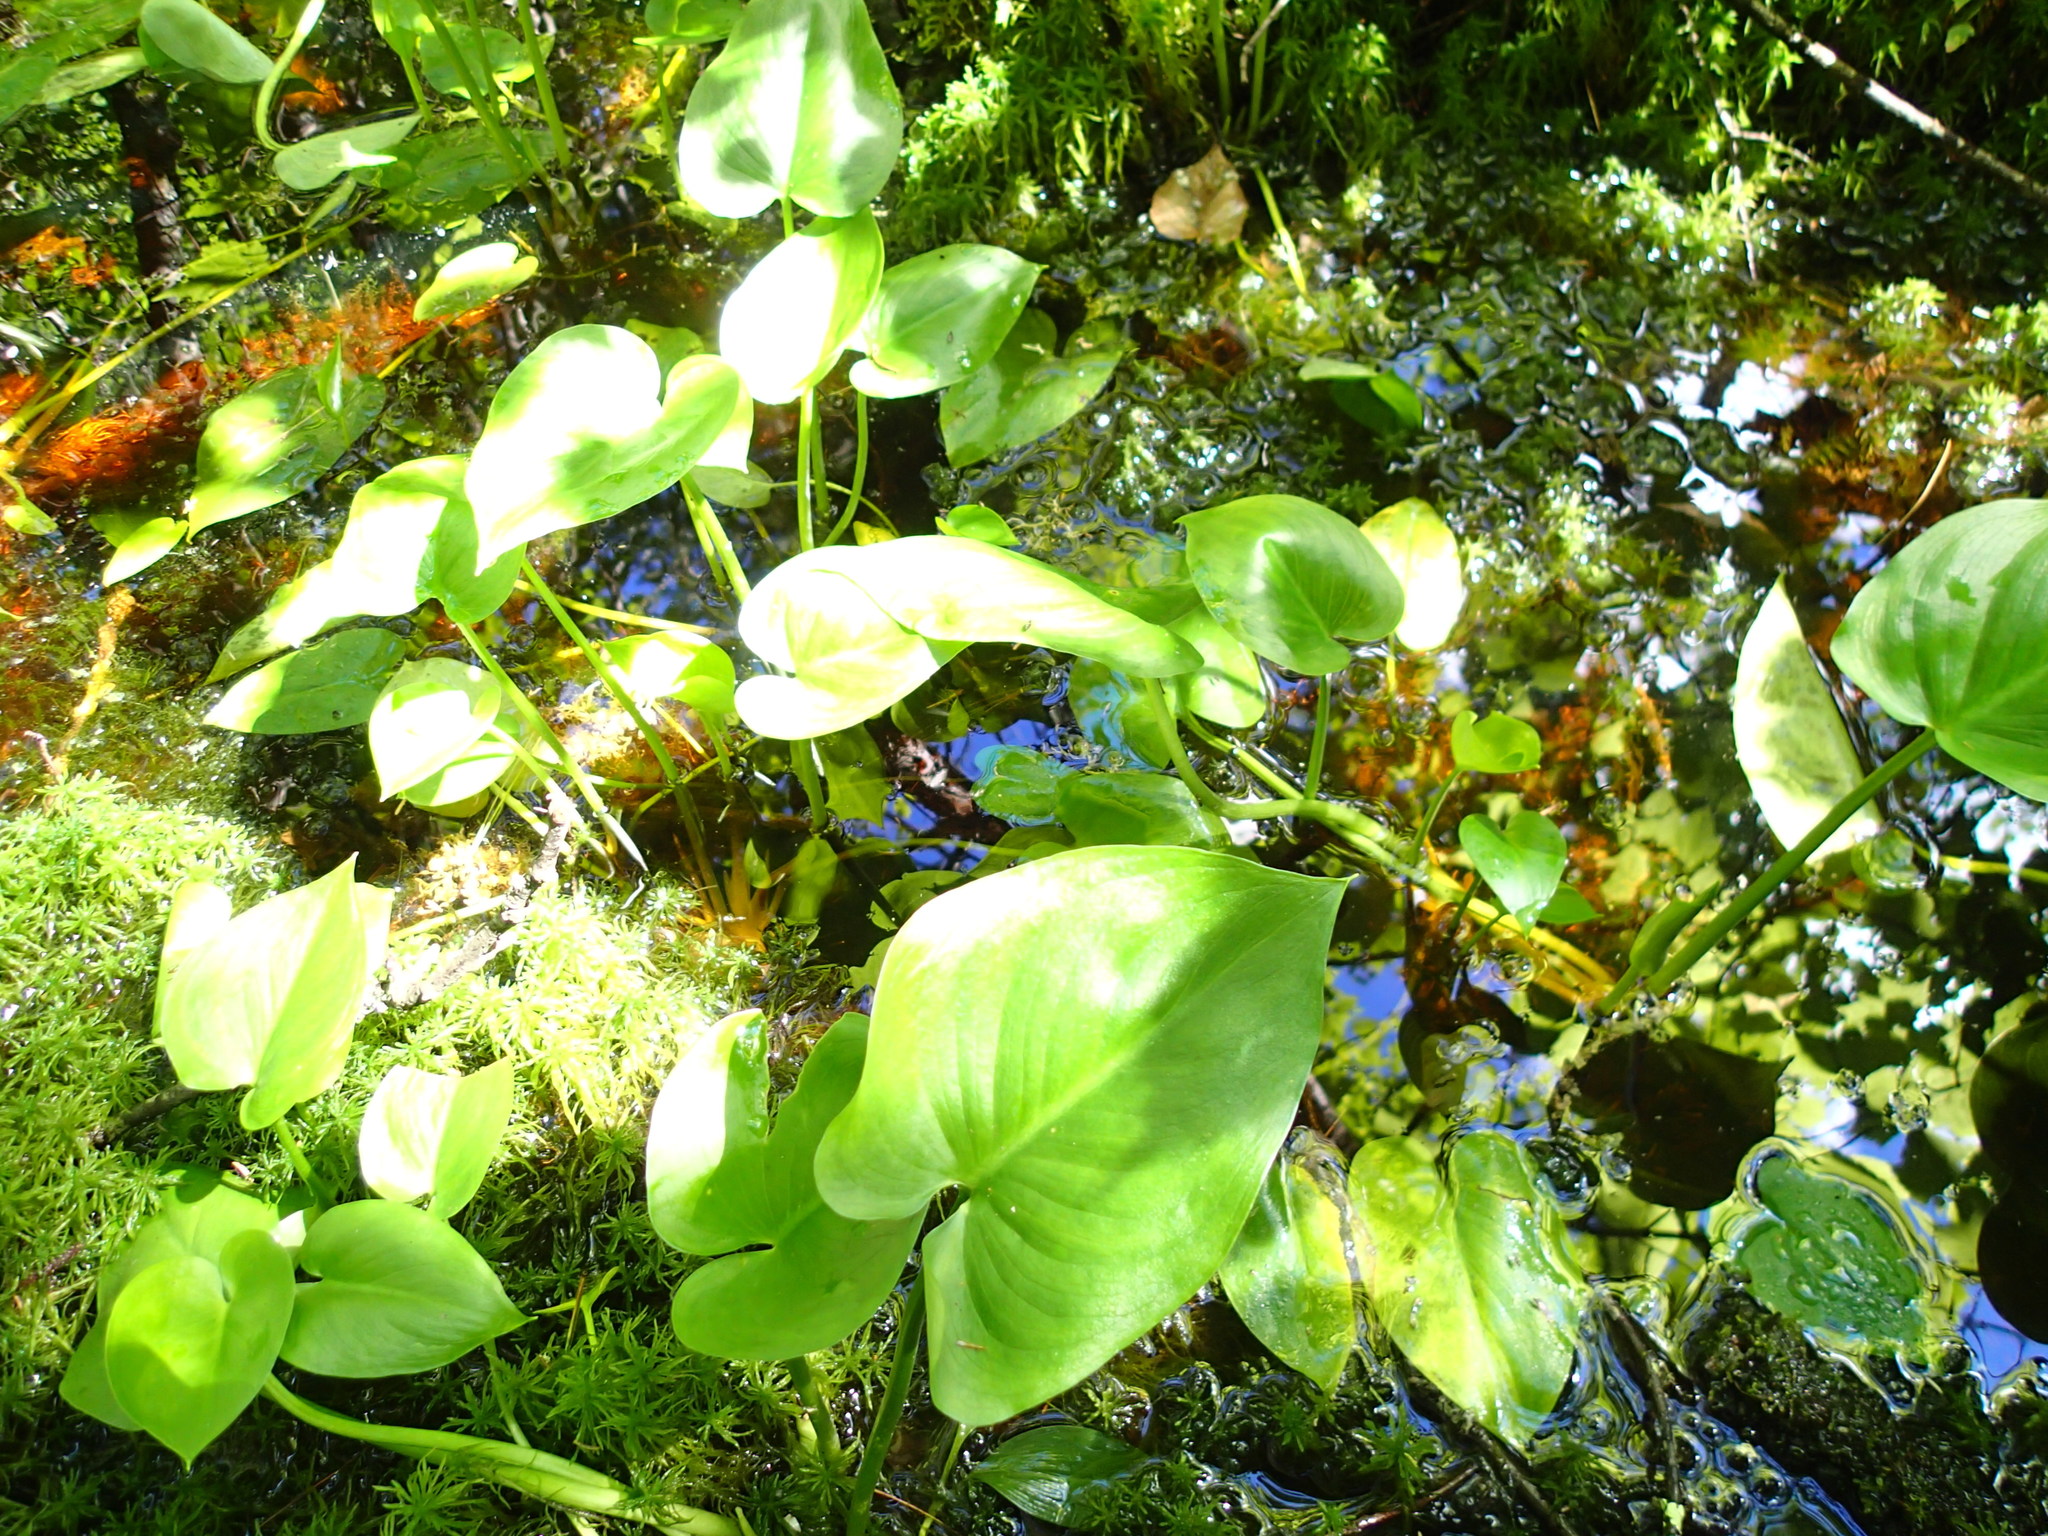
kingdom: Plantae
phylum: Tracheophyta
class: Liliopsida
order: Alismatales
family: Araceae
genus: Calla
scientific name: Calla palustris
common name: Bog arum
